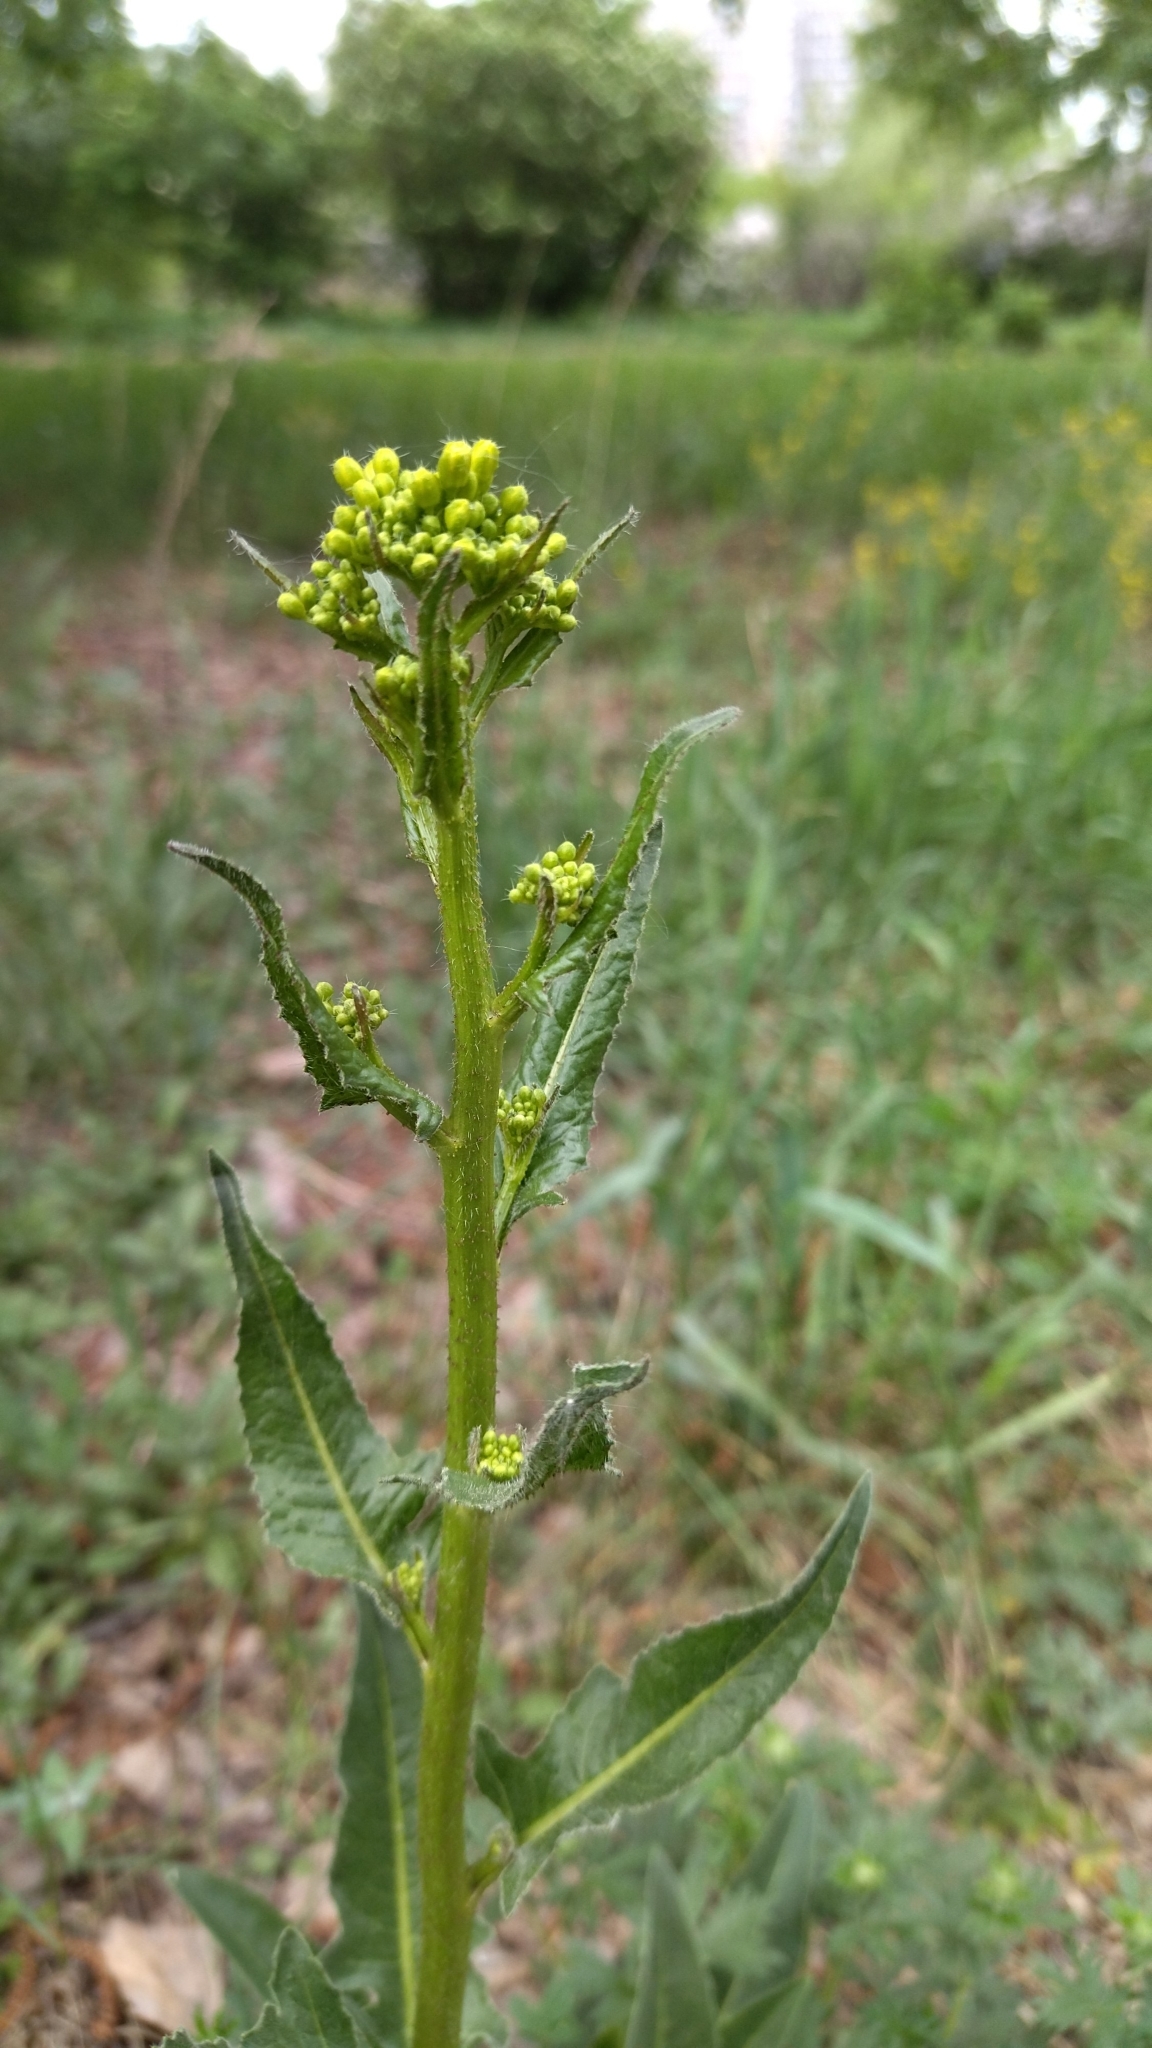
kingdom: Plantae
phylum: Tracheophyta
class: Magnoliopsida
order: Brassicales
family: Brassicaceae
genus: Bunias
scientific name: Bunias orientalis
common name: Warty-cabbage
